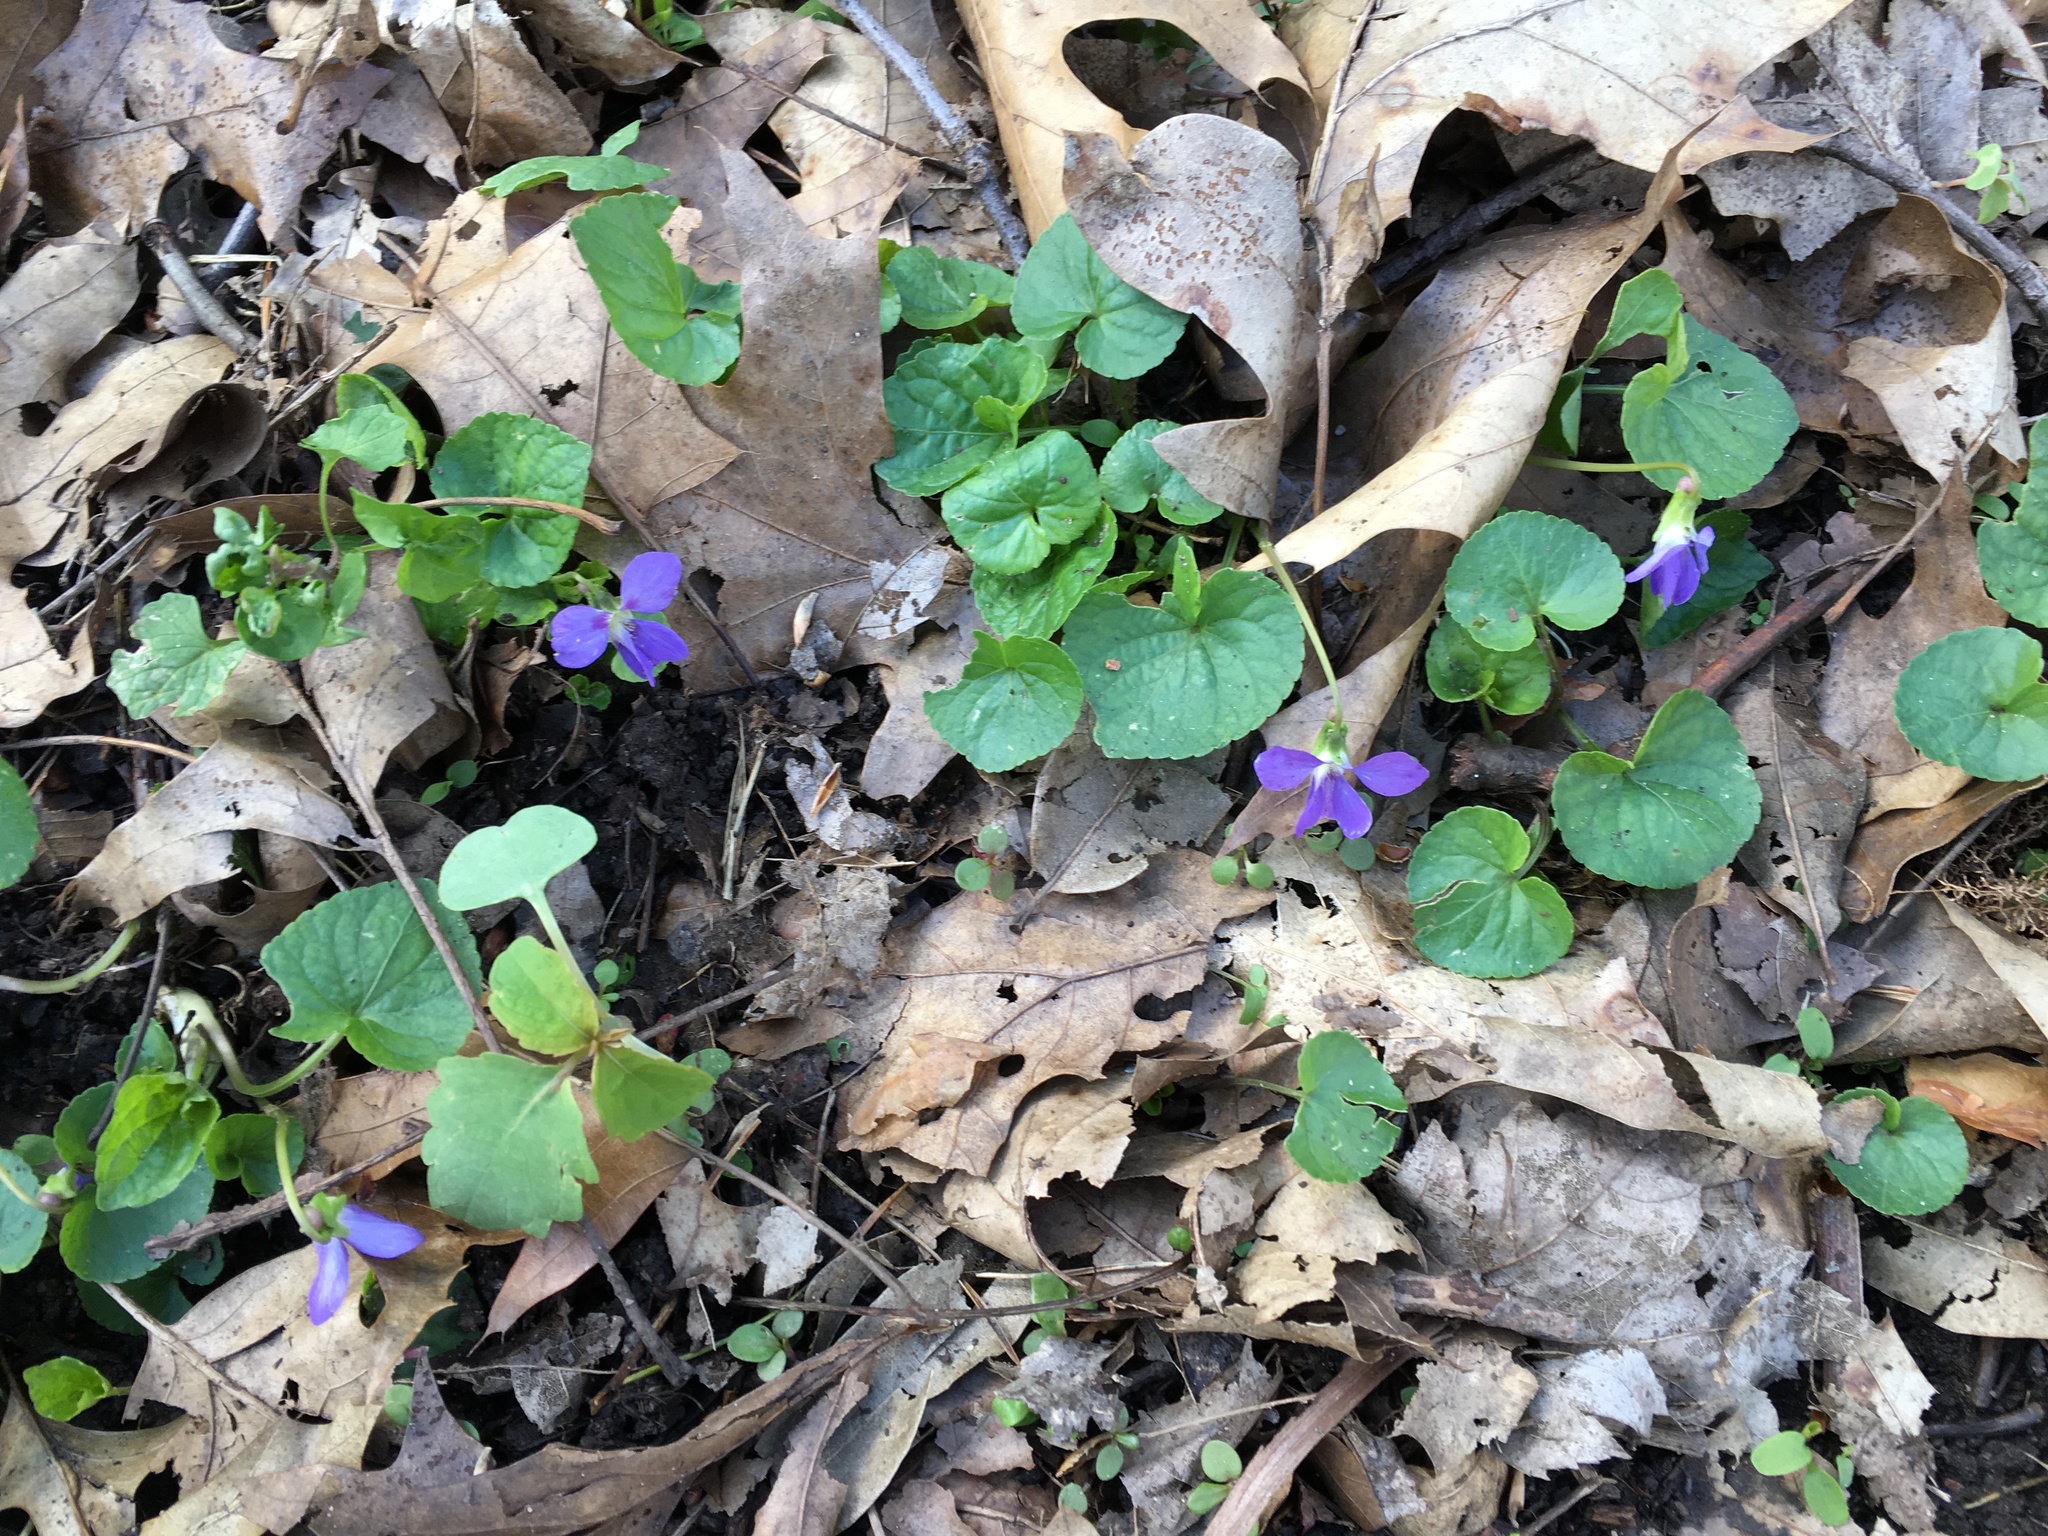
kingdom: Plantae
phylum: Tracheophyta
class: Magnoliopsida
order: Malpighiales
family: Violaceae
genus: Viola
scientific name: Viola sororia
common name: Dooryard violet
